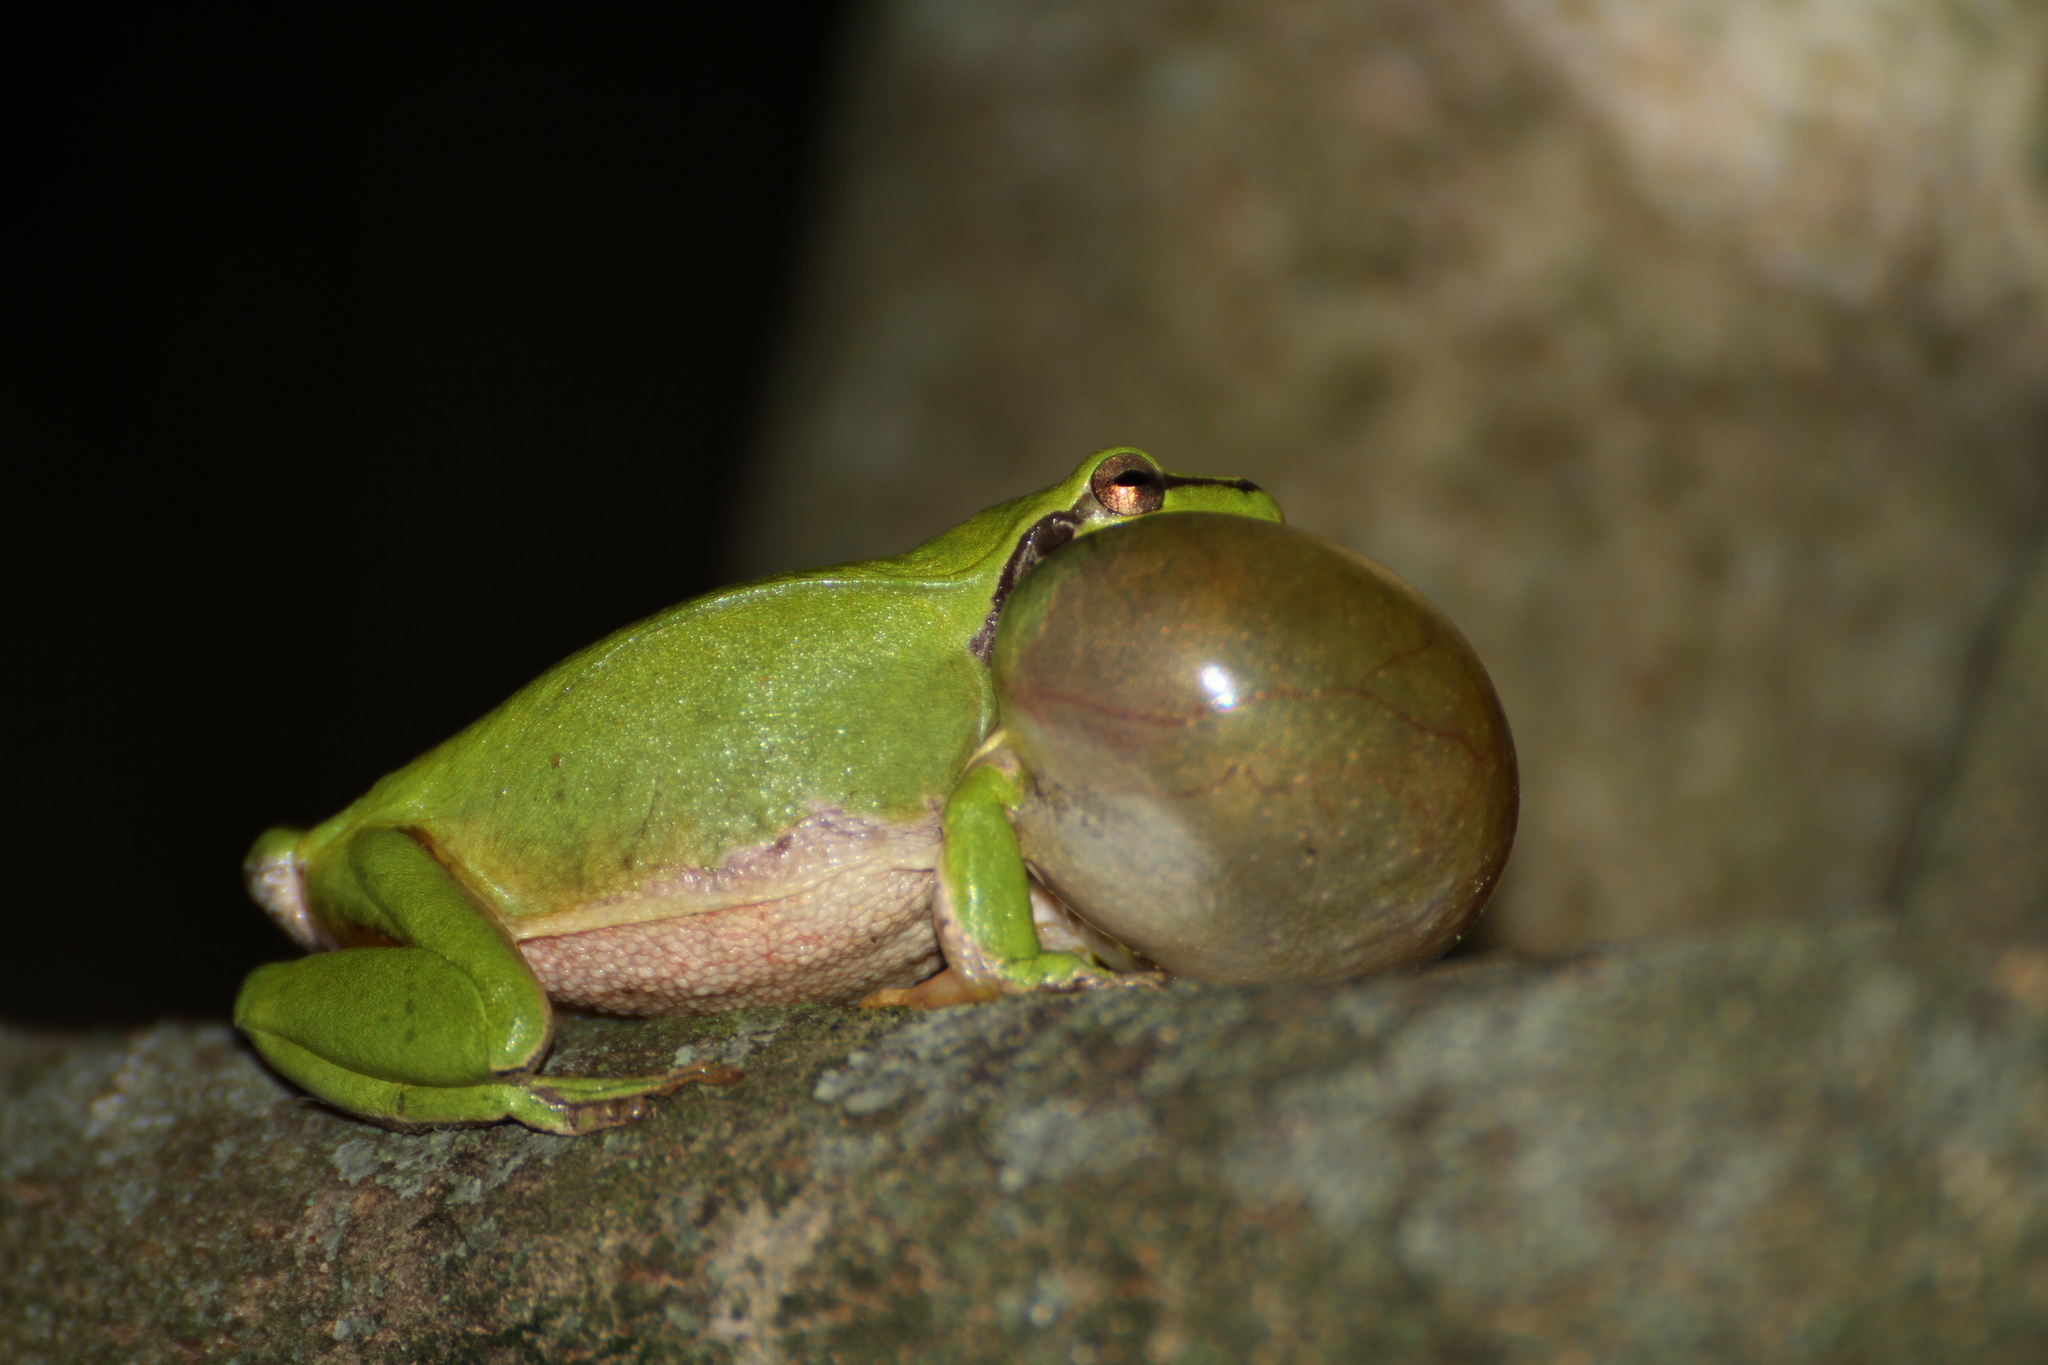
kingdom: Animalia
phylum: Chordata
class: Amphibia
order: Anura
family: Hylidae
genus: Hyla
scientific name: Hyla meridionalis
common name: Stripeless tree frog
